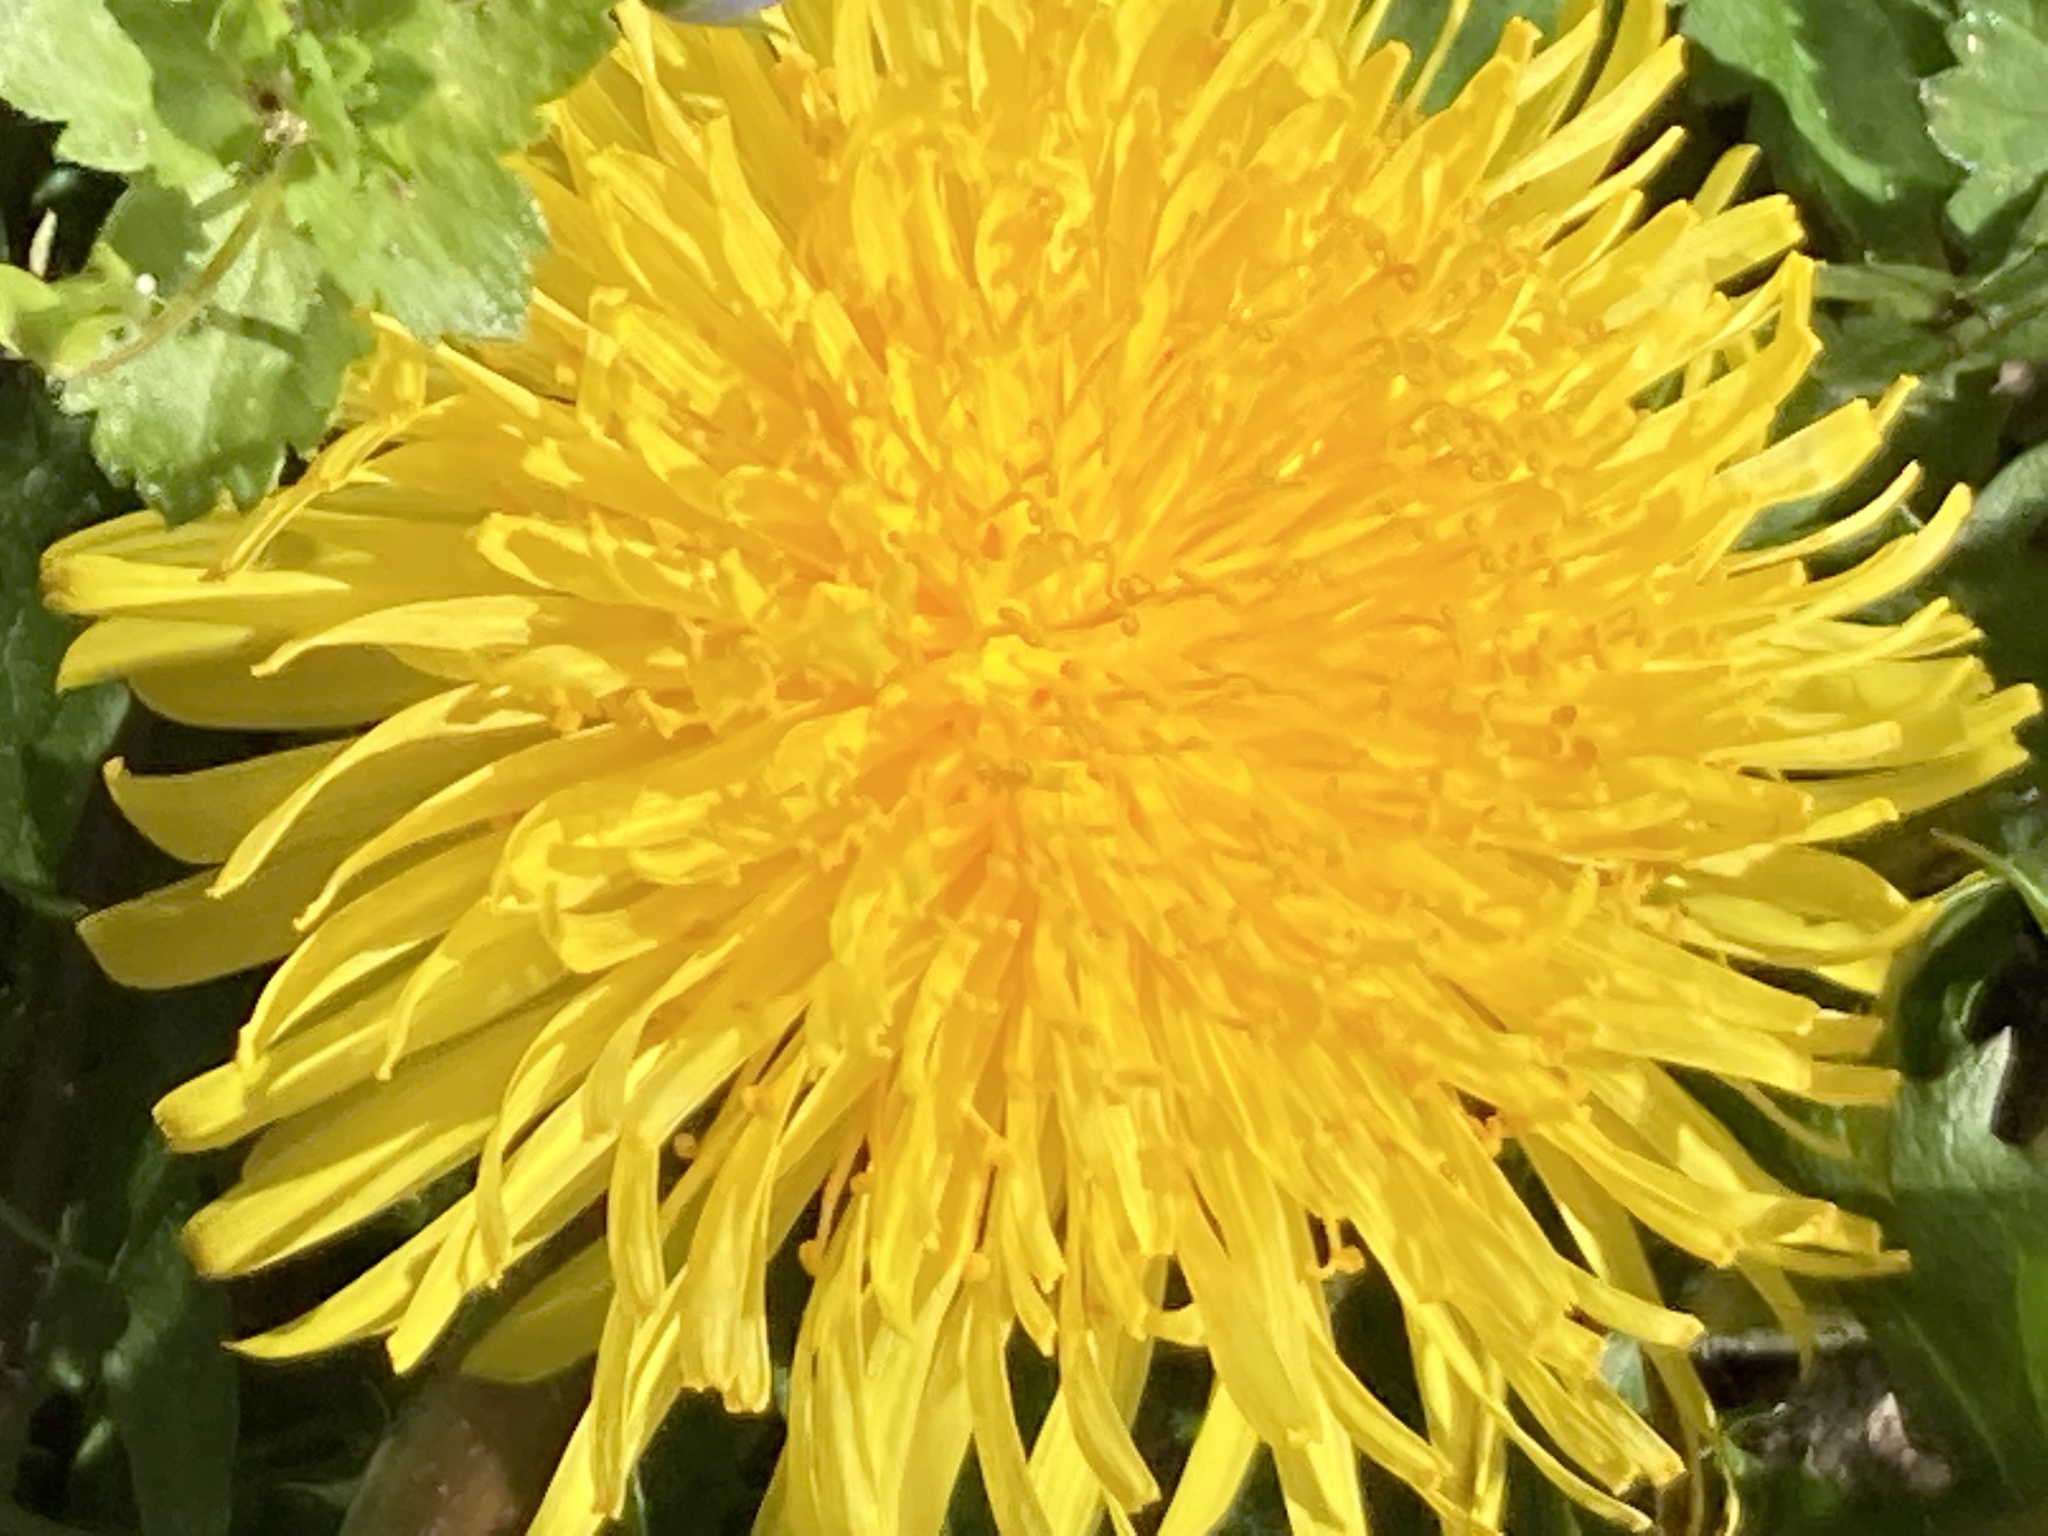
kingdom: Plantae
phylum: Tracheophyta
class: Magnoliopsida
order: Asterales
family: Asteraceae
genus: Taraxacum
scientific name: Taraxacum officinale
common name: Common dandelion
